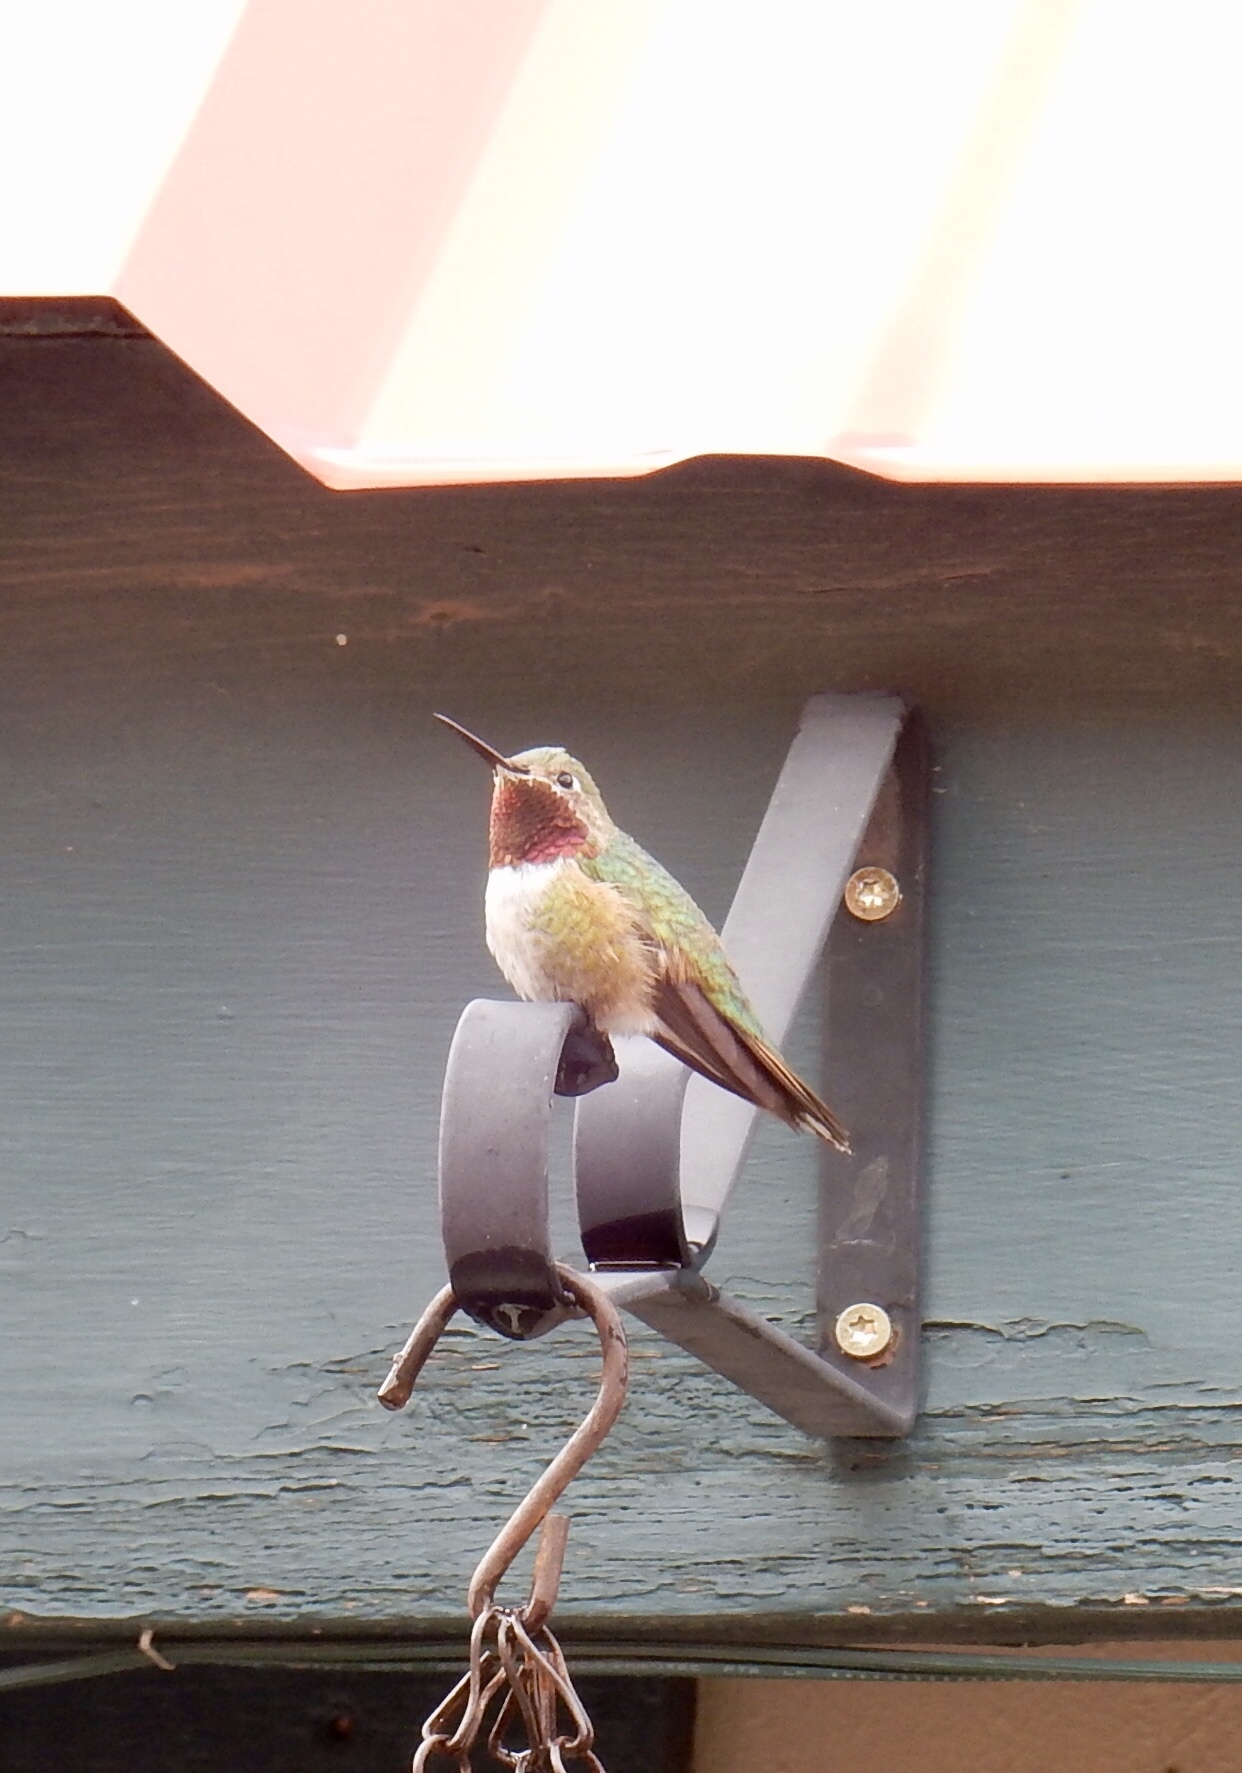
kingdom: Animalia
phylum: Chordata
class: Aves
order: Apodiformes
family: Trochilidae
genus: Selasphorus
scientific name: Selasphorus platycercus
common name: Broad-tailed hummingbird
